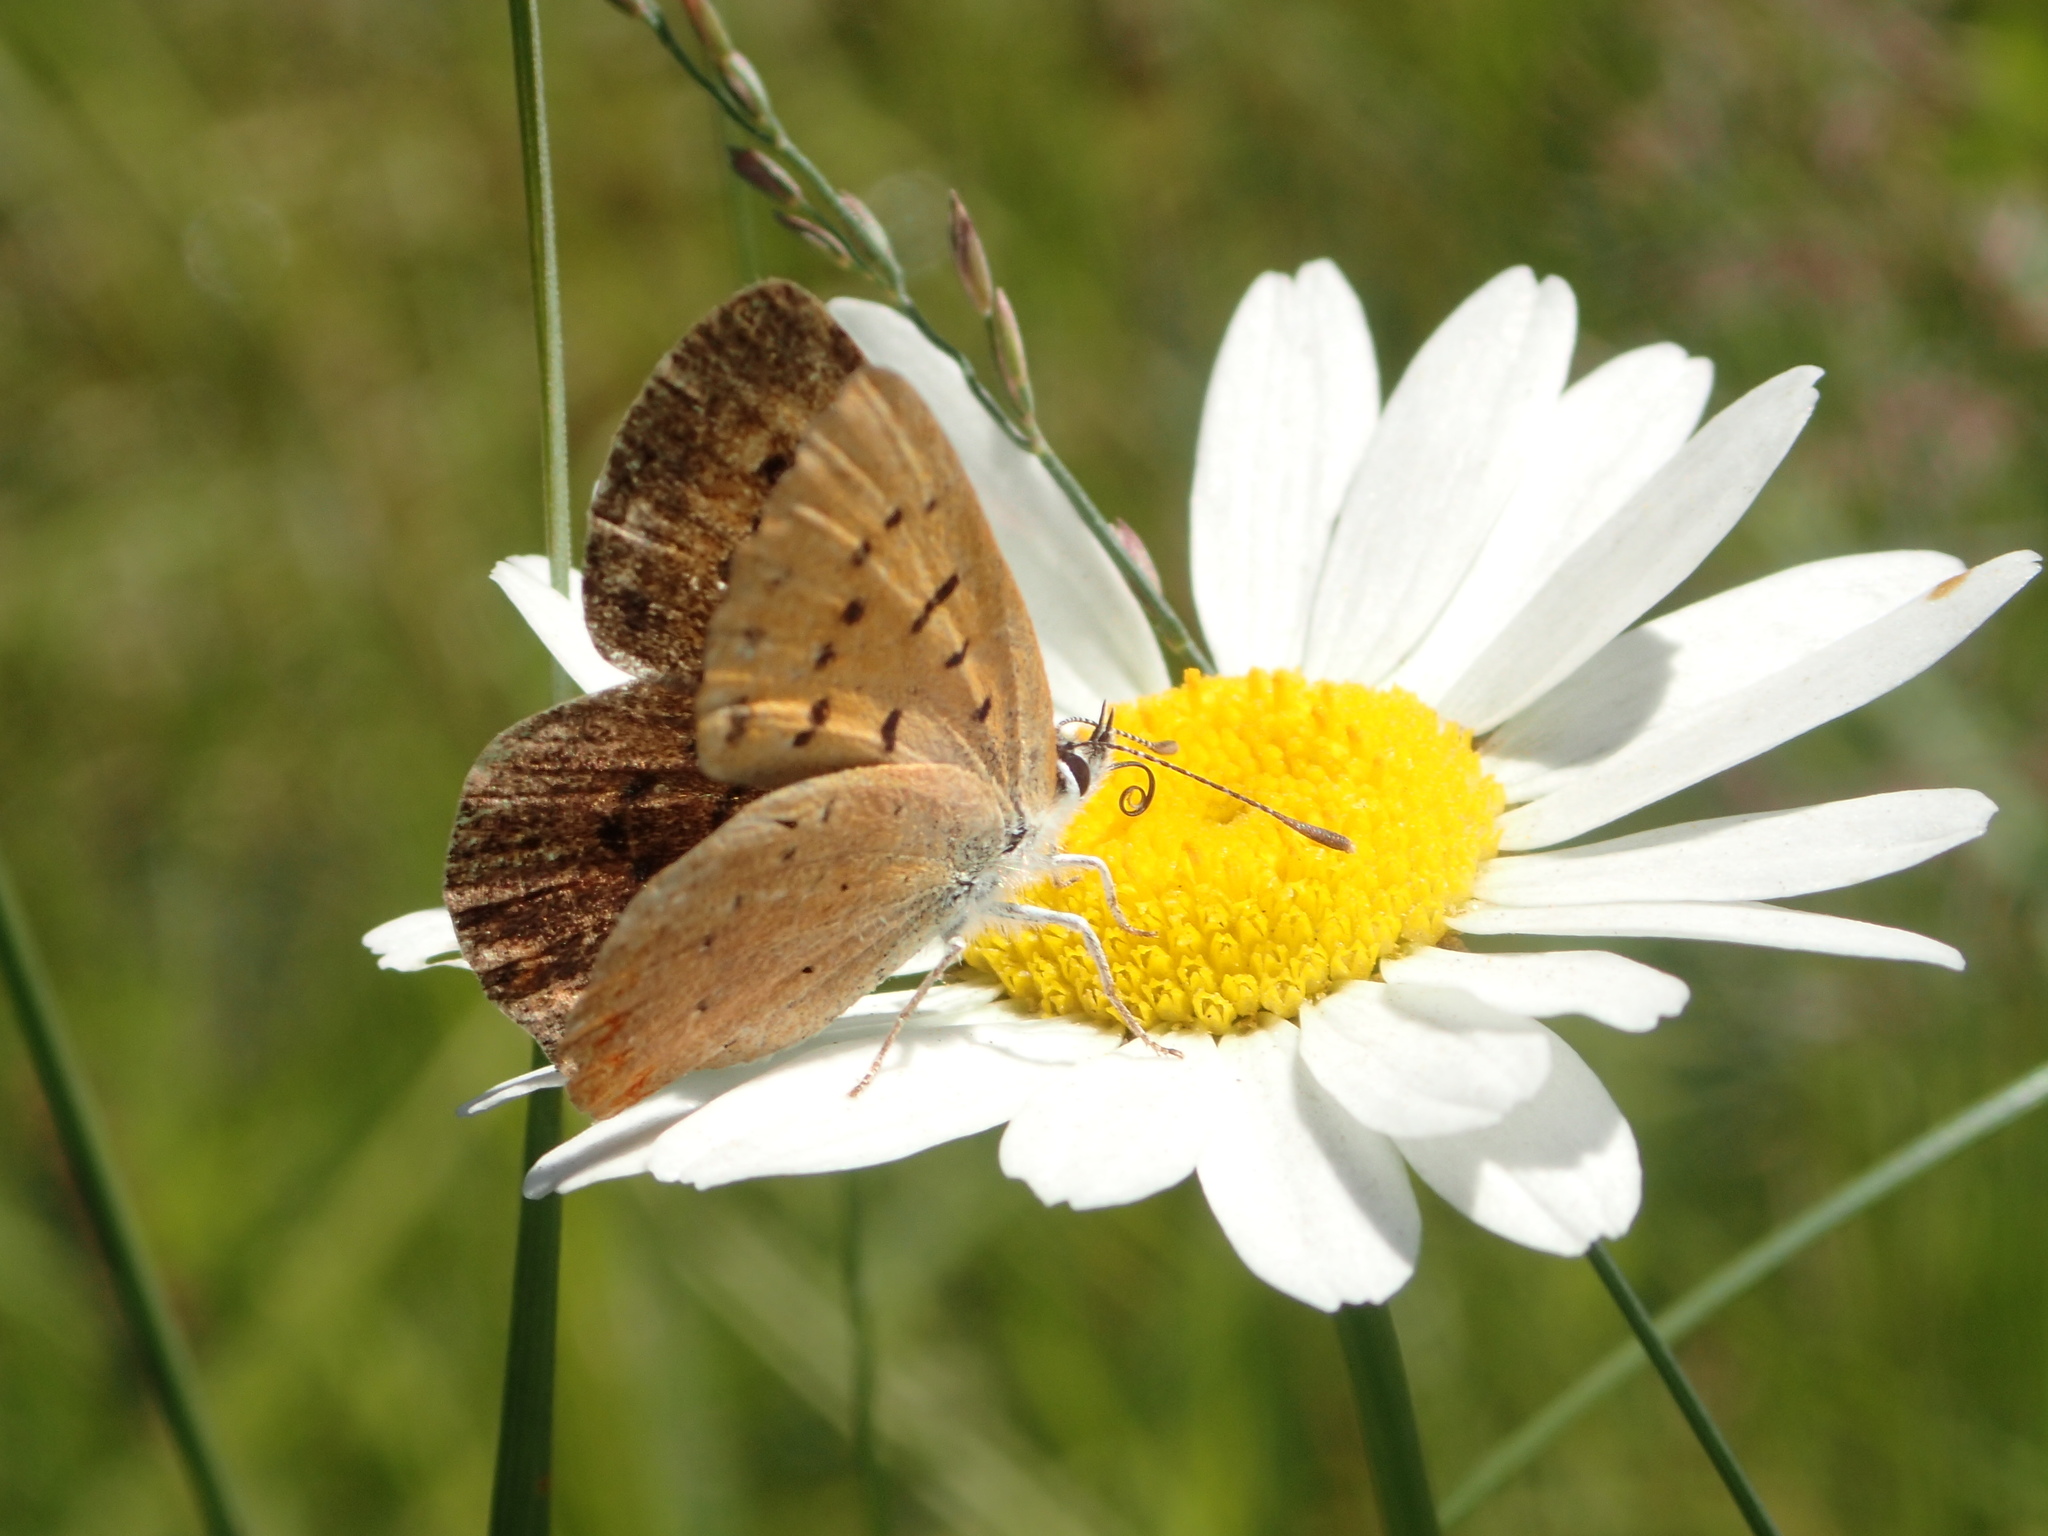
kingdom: Animalia
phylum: Arthropoda
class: Insecta
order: Lepidoptera
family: Lycaenidae
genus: Tharsalea
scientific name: Tharsalea dorcas
